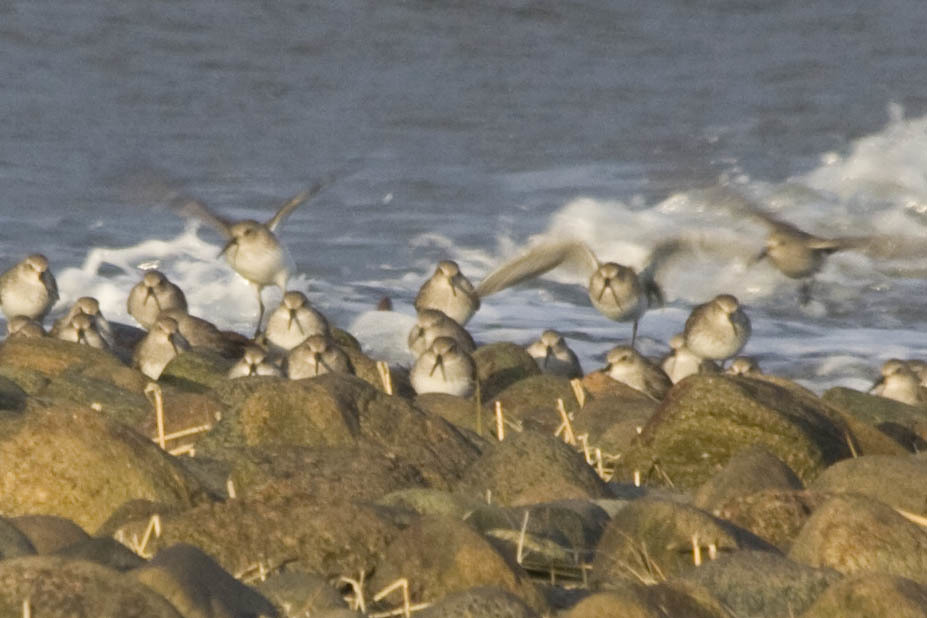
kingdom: Animalia
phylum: Chordata
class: Aves
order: Charadriiformes
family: Scolopacidae
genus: Calidris
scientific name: Calidris alpina
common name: Dunlin
